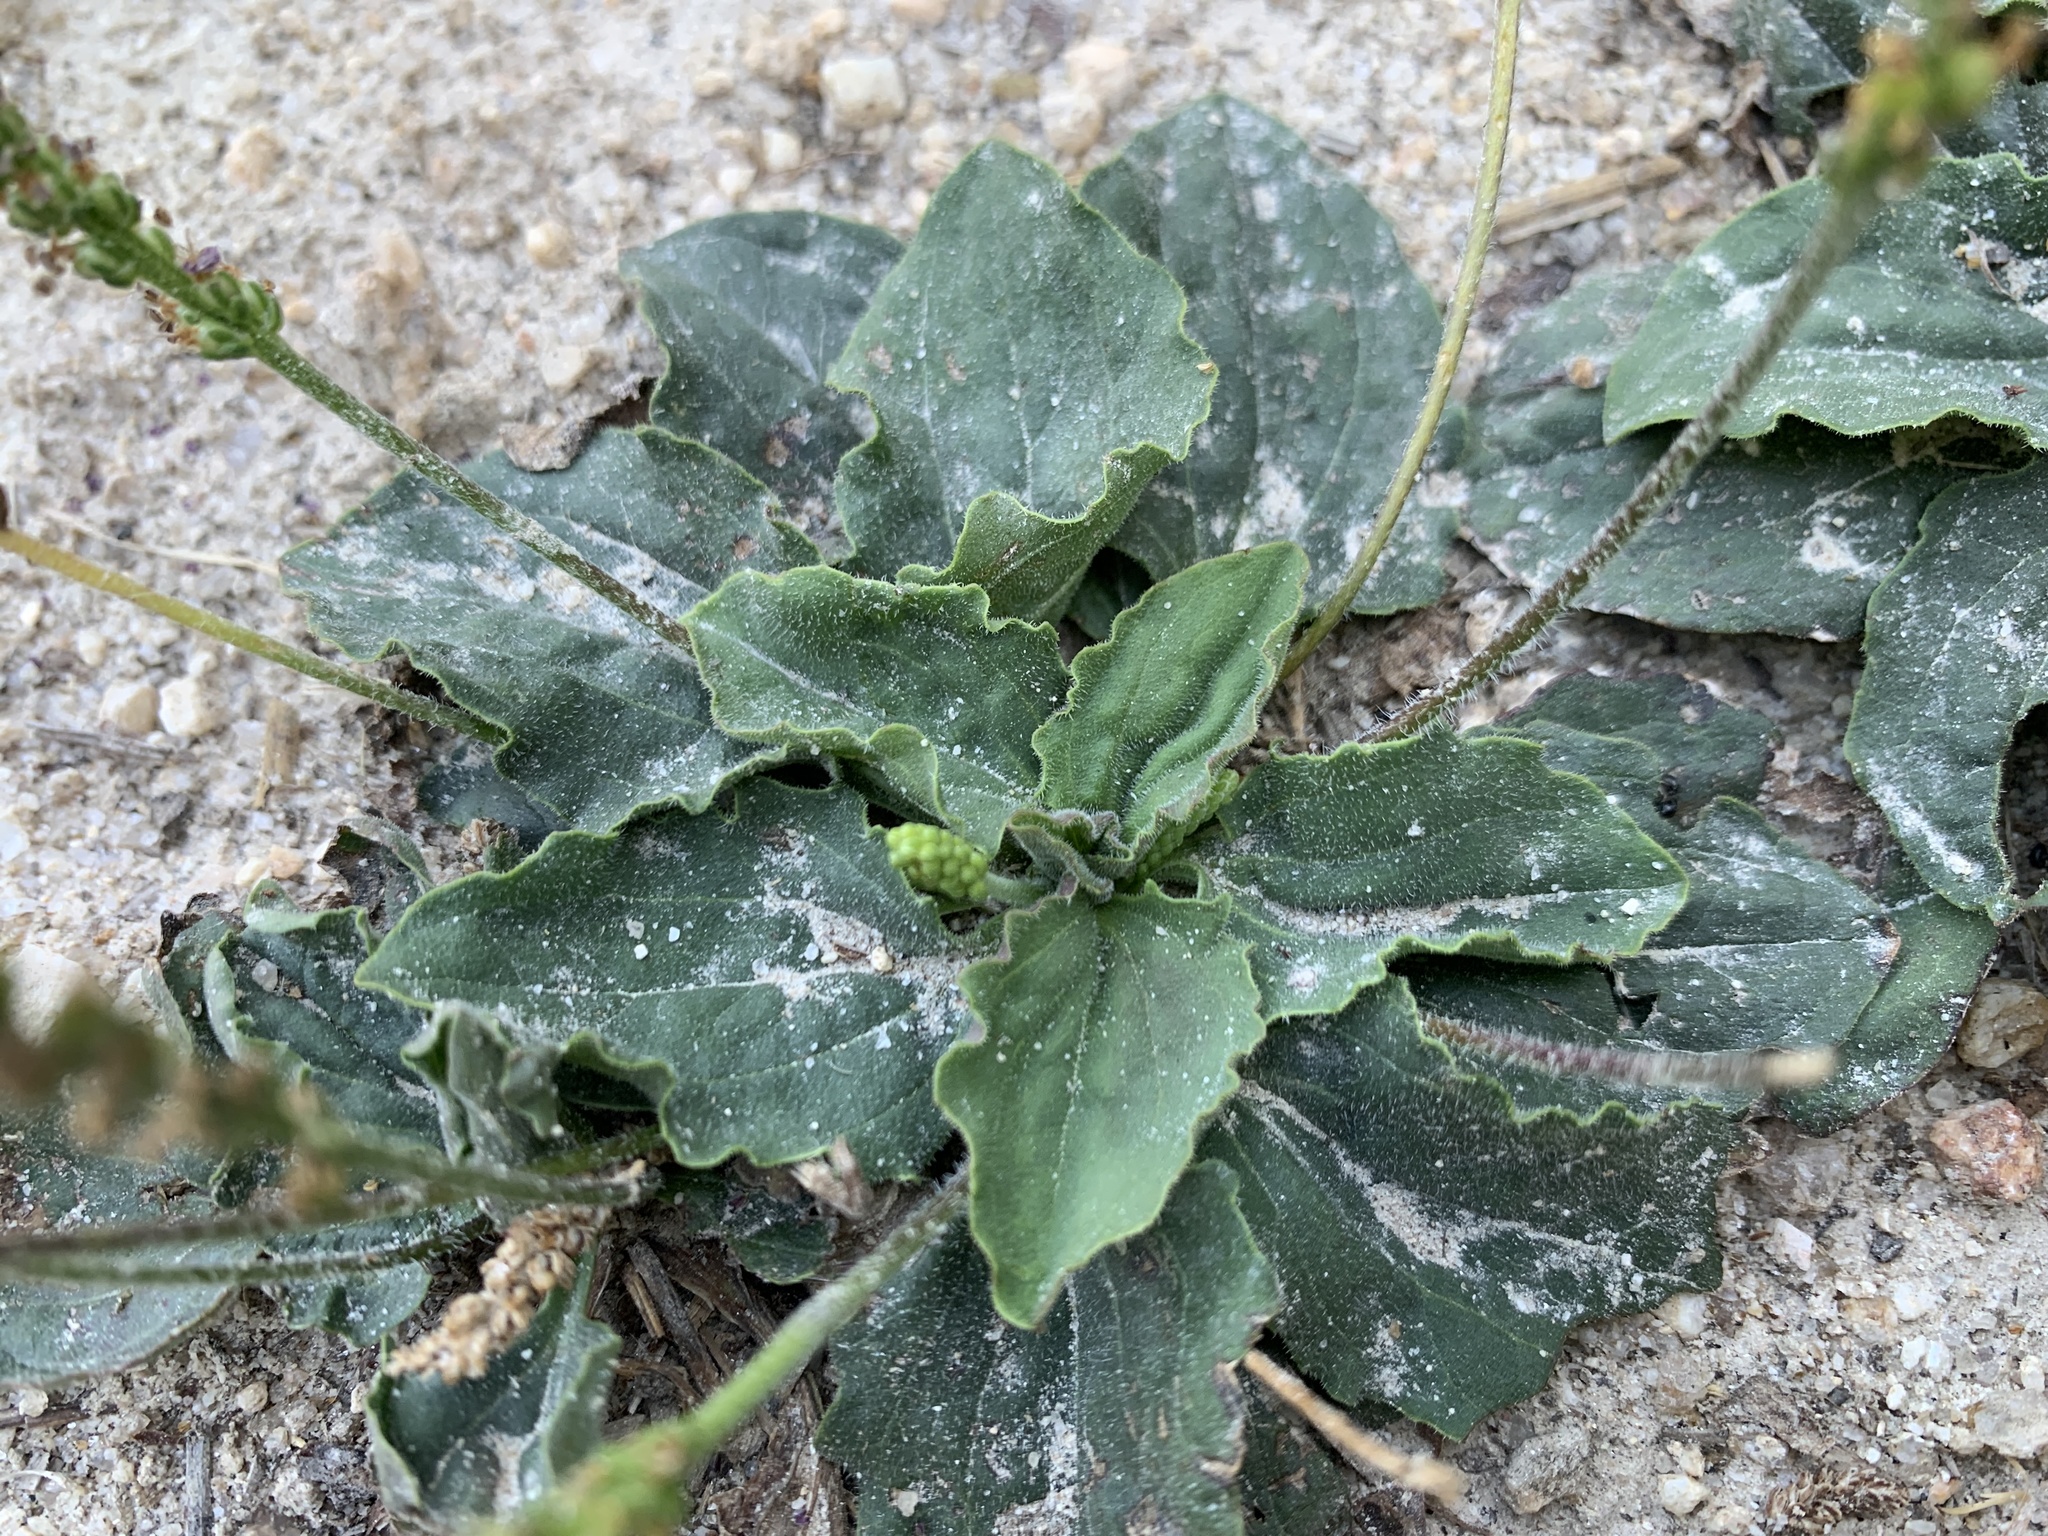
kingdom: Plantae
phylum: Tracheophyta
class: Magnoliopsida
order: Lamiales
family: Plantaginaceae
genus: Plantago
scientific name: Plantago major
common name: Common plantain
